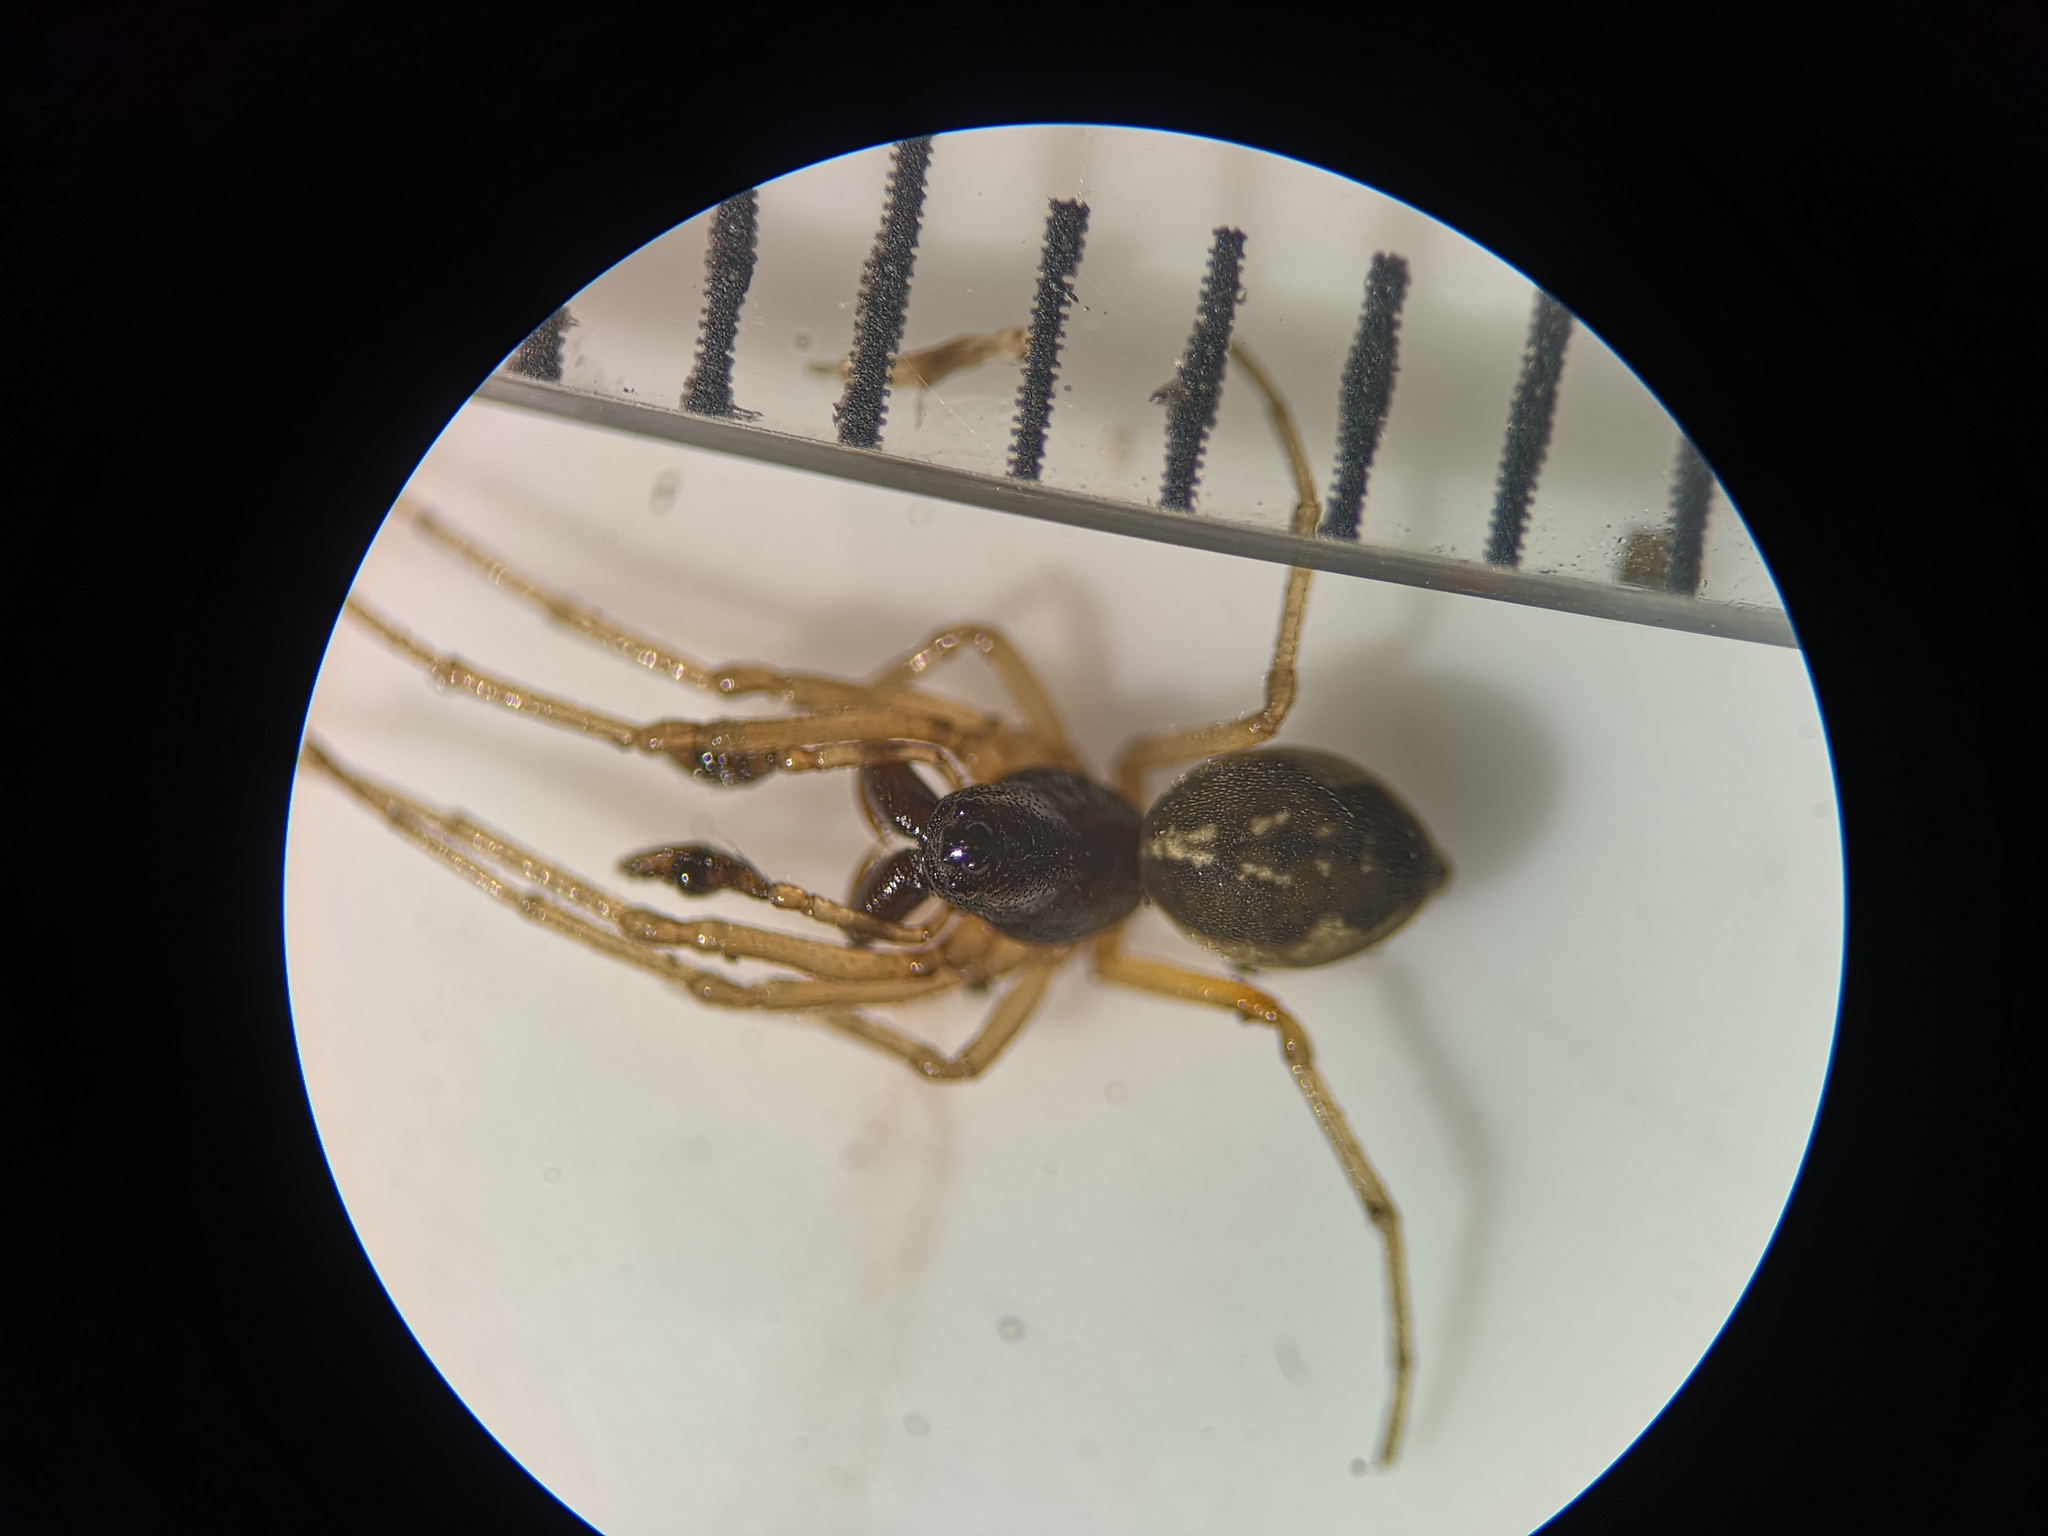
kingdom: Animalia
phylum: Arthropoda
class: Arachnida
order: Araneae
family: Tetragnathidae
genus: Pachygnatha
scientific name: Pachygnatha degeeri
